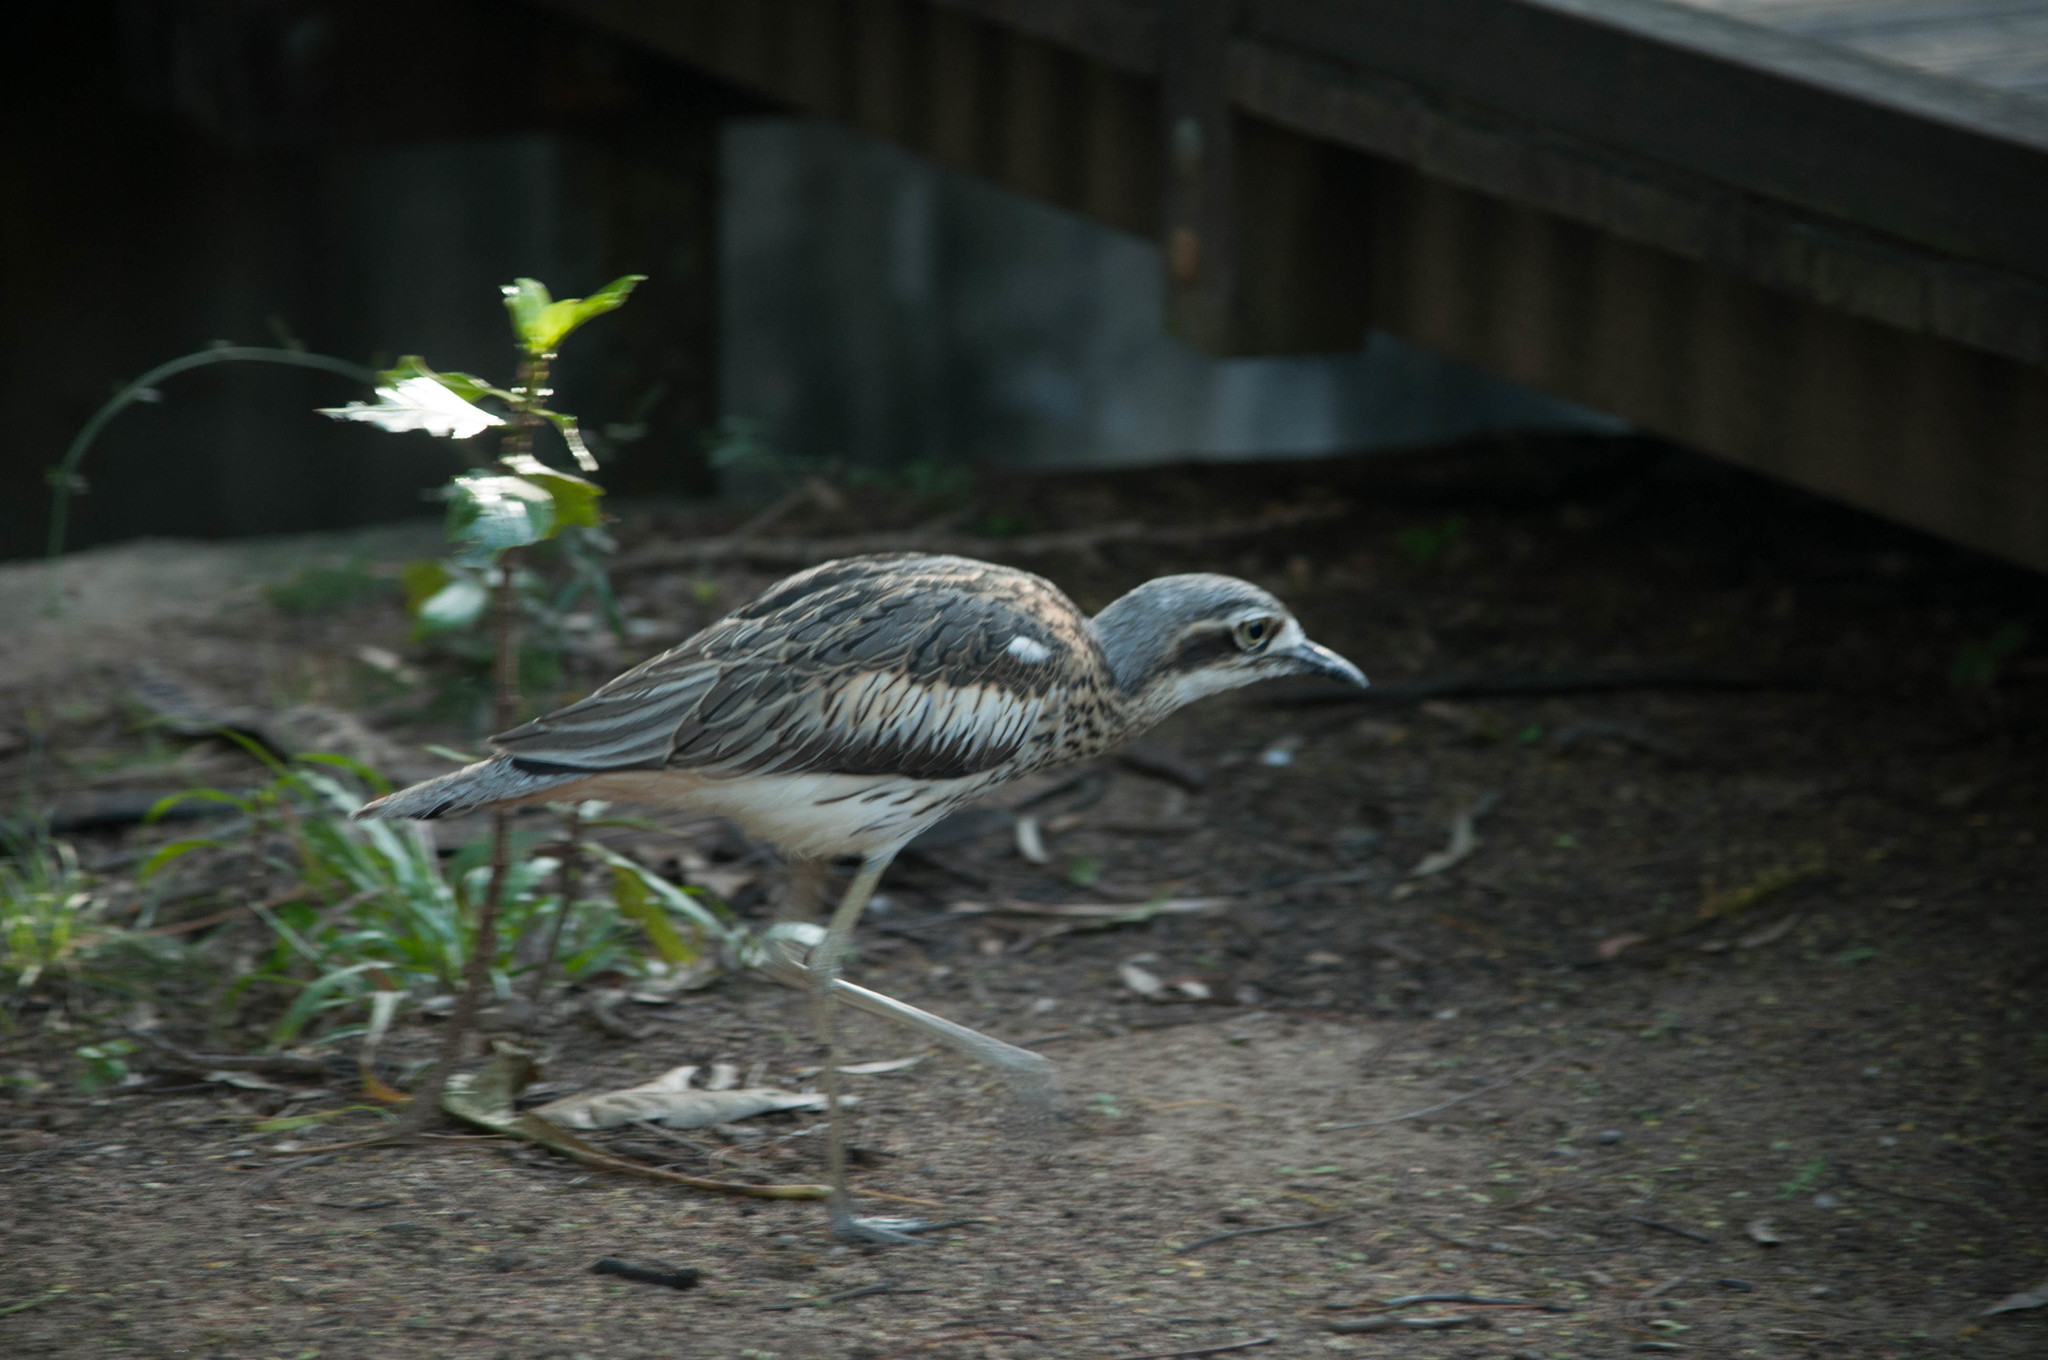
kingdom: Animalia
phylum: Chordata
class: Aves
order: Charadriiformes
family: Burhinidae
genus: Burhinus
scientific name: Burhinus grallarius
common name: Bush stone-curlew
